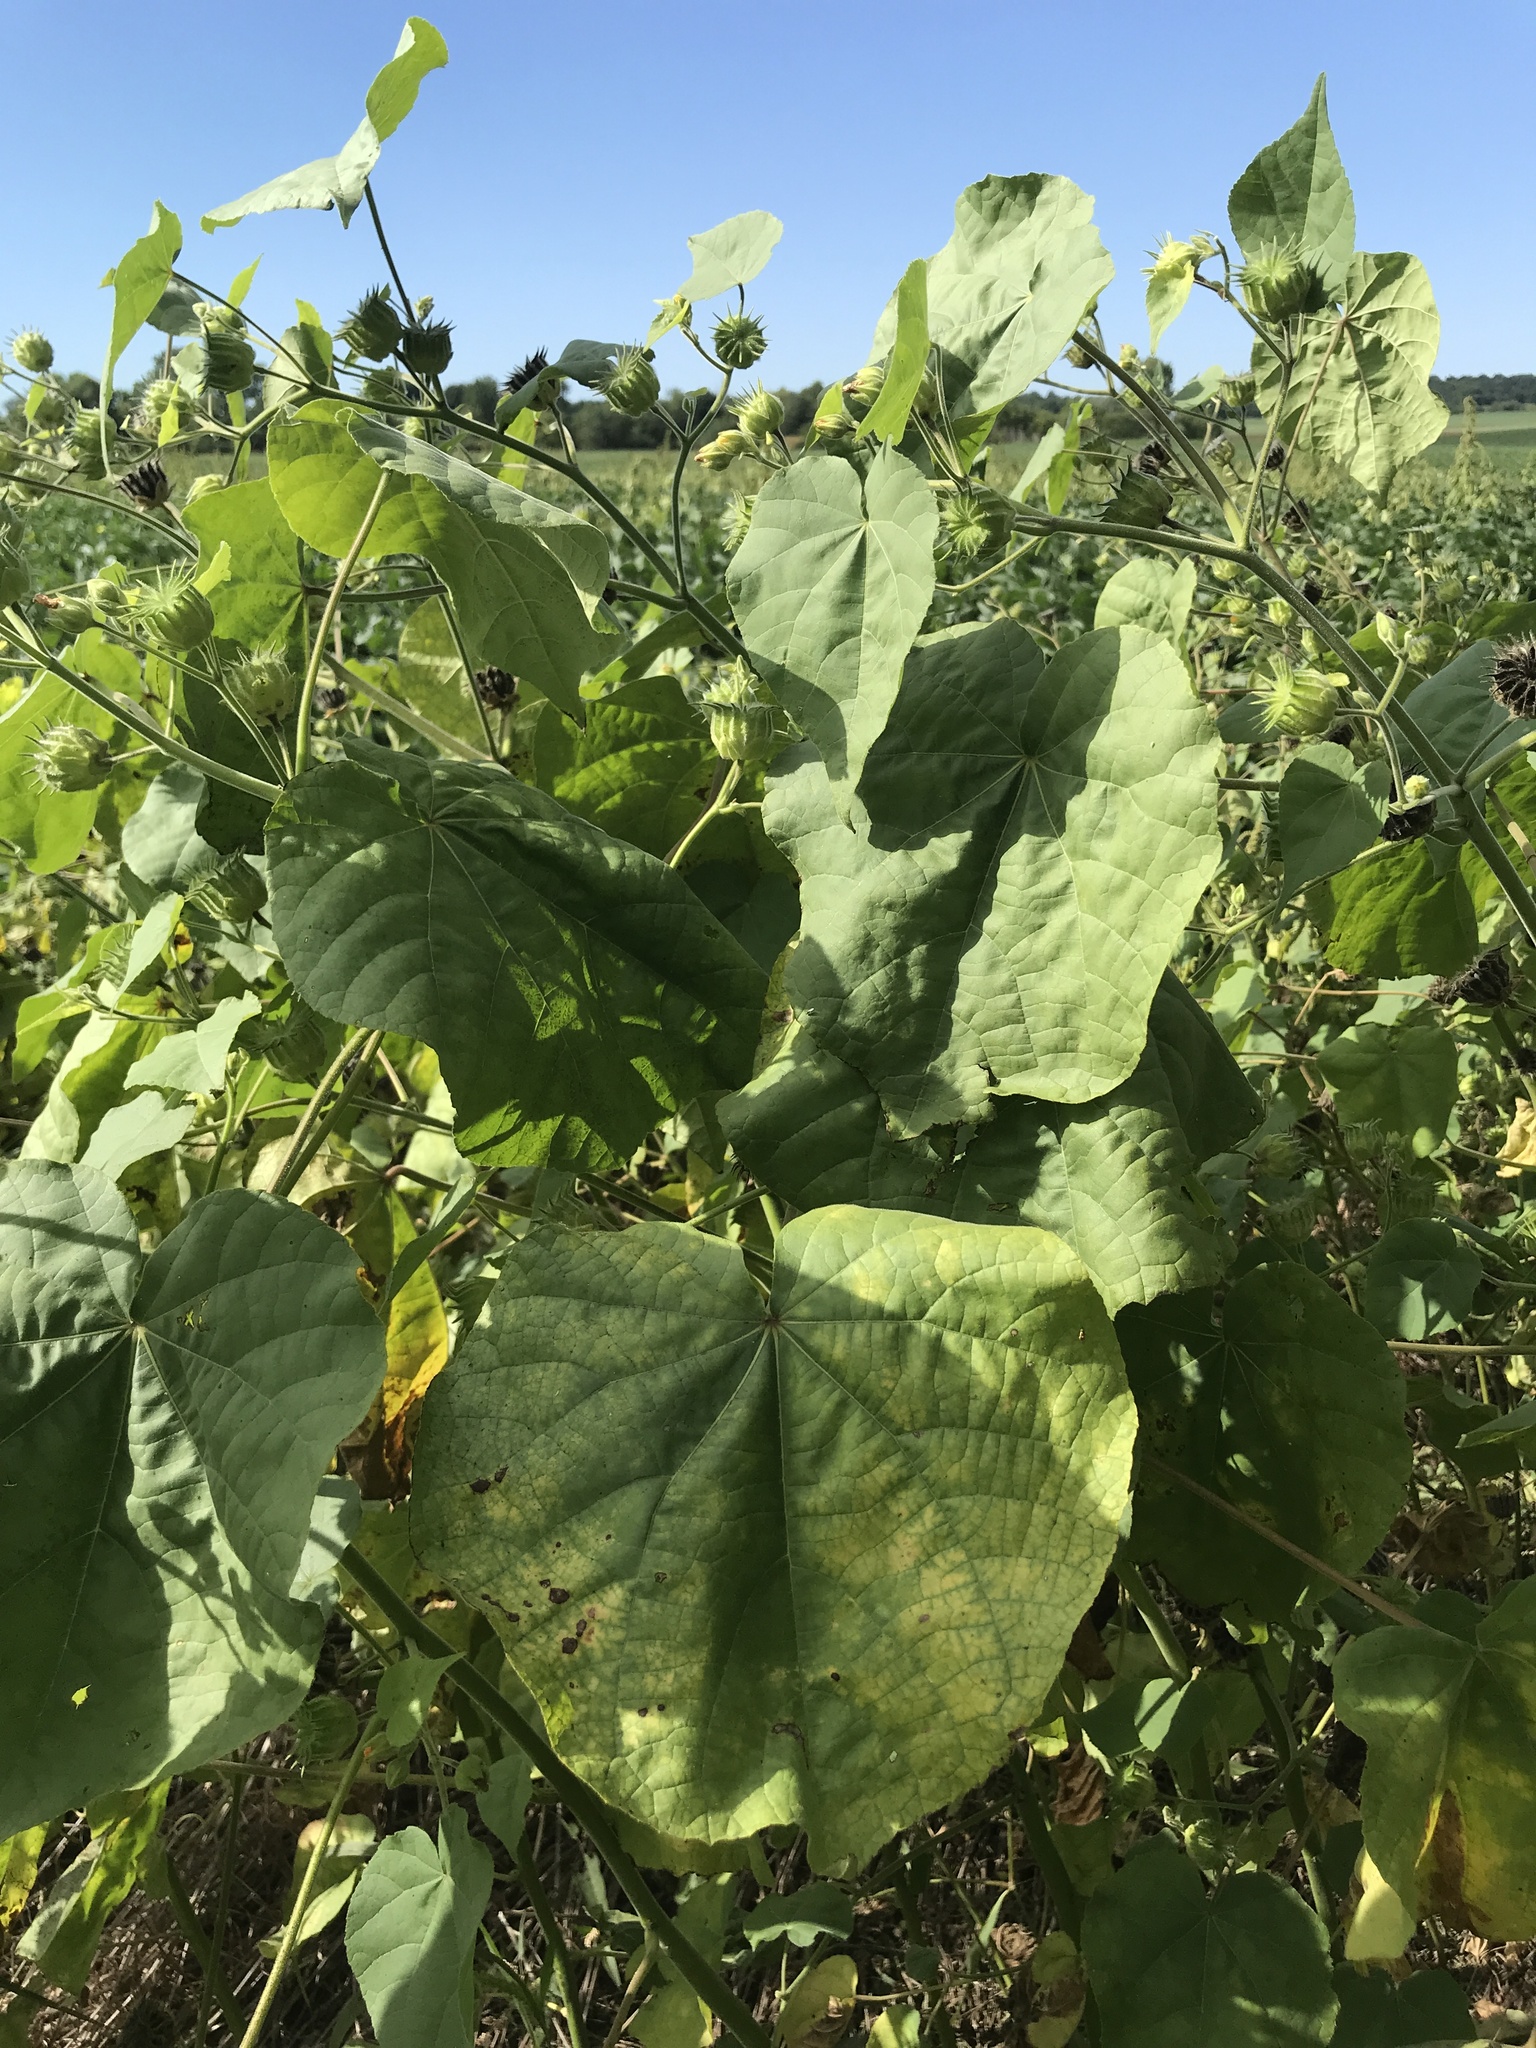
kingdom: Plantae
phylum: Tracheophyta
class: Magnoliopsida
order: Malvales
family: Malvaceae
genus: Abutilon
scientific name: Abutilon theophrasti
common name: Velvetleaf
